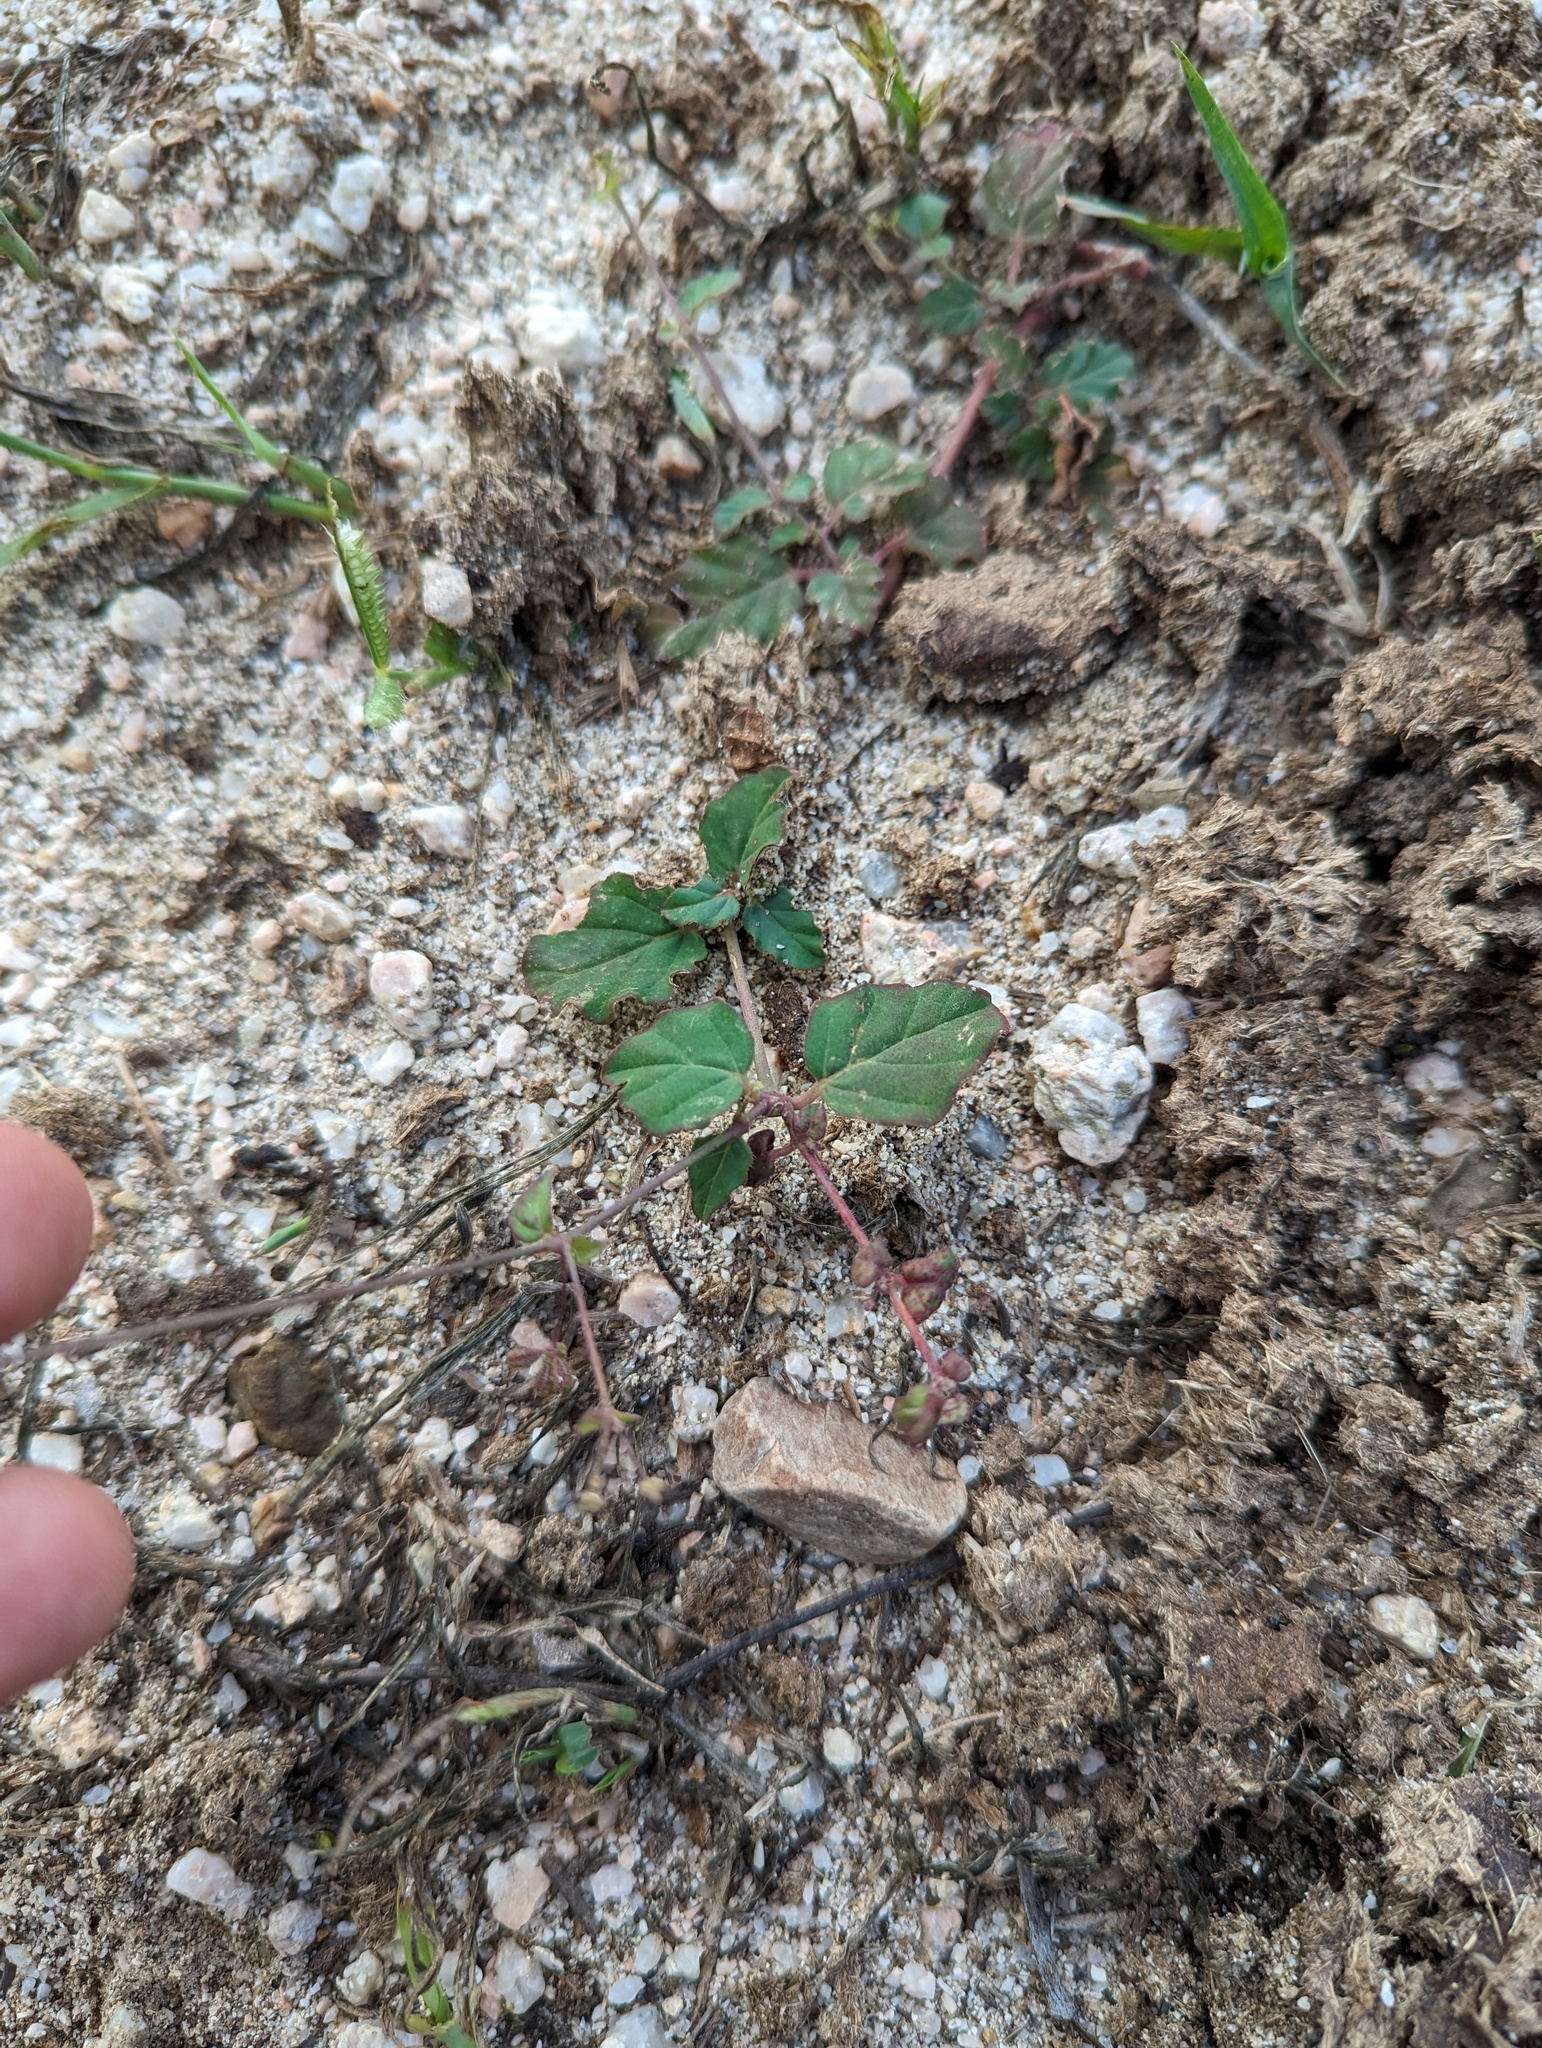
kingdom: Plantae
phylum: Tracheophyta
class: Magnoliopsida
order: Caryophyllales
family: Nyctaginaceae
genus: Boerhavia
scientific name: Boerhavia coccinea
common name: Scarlet spiderling
